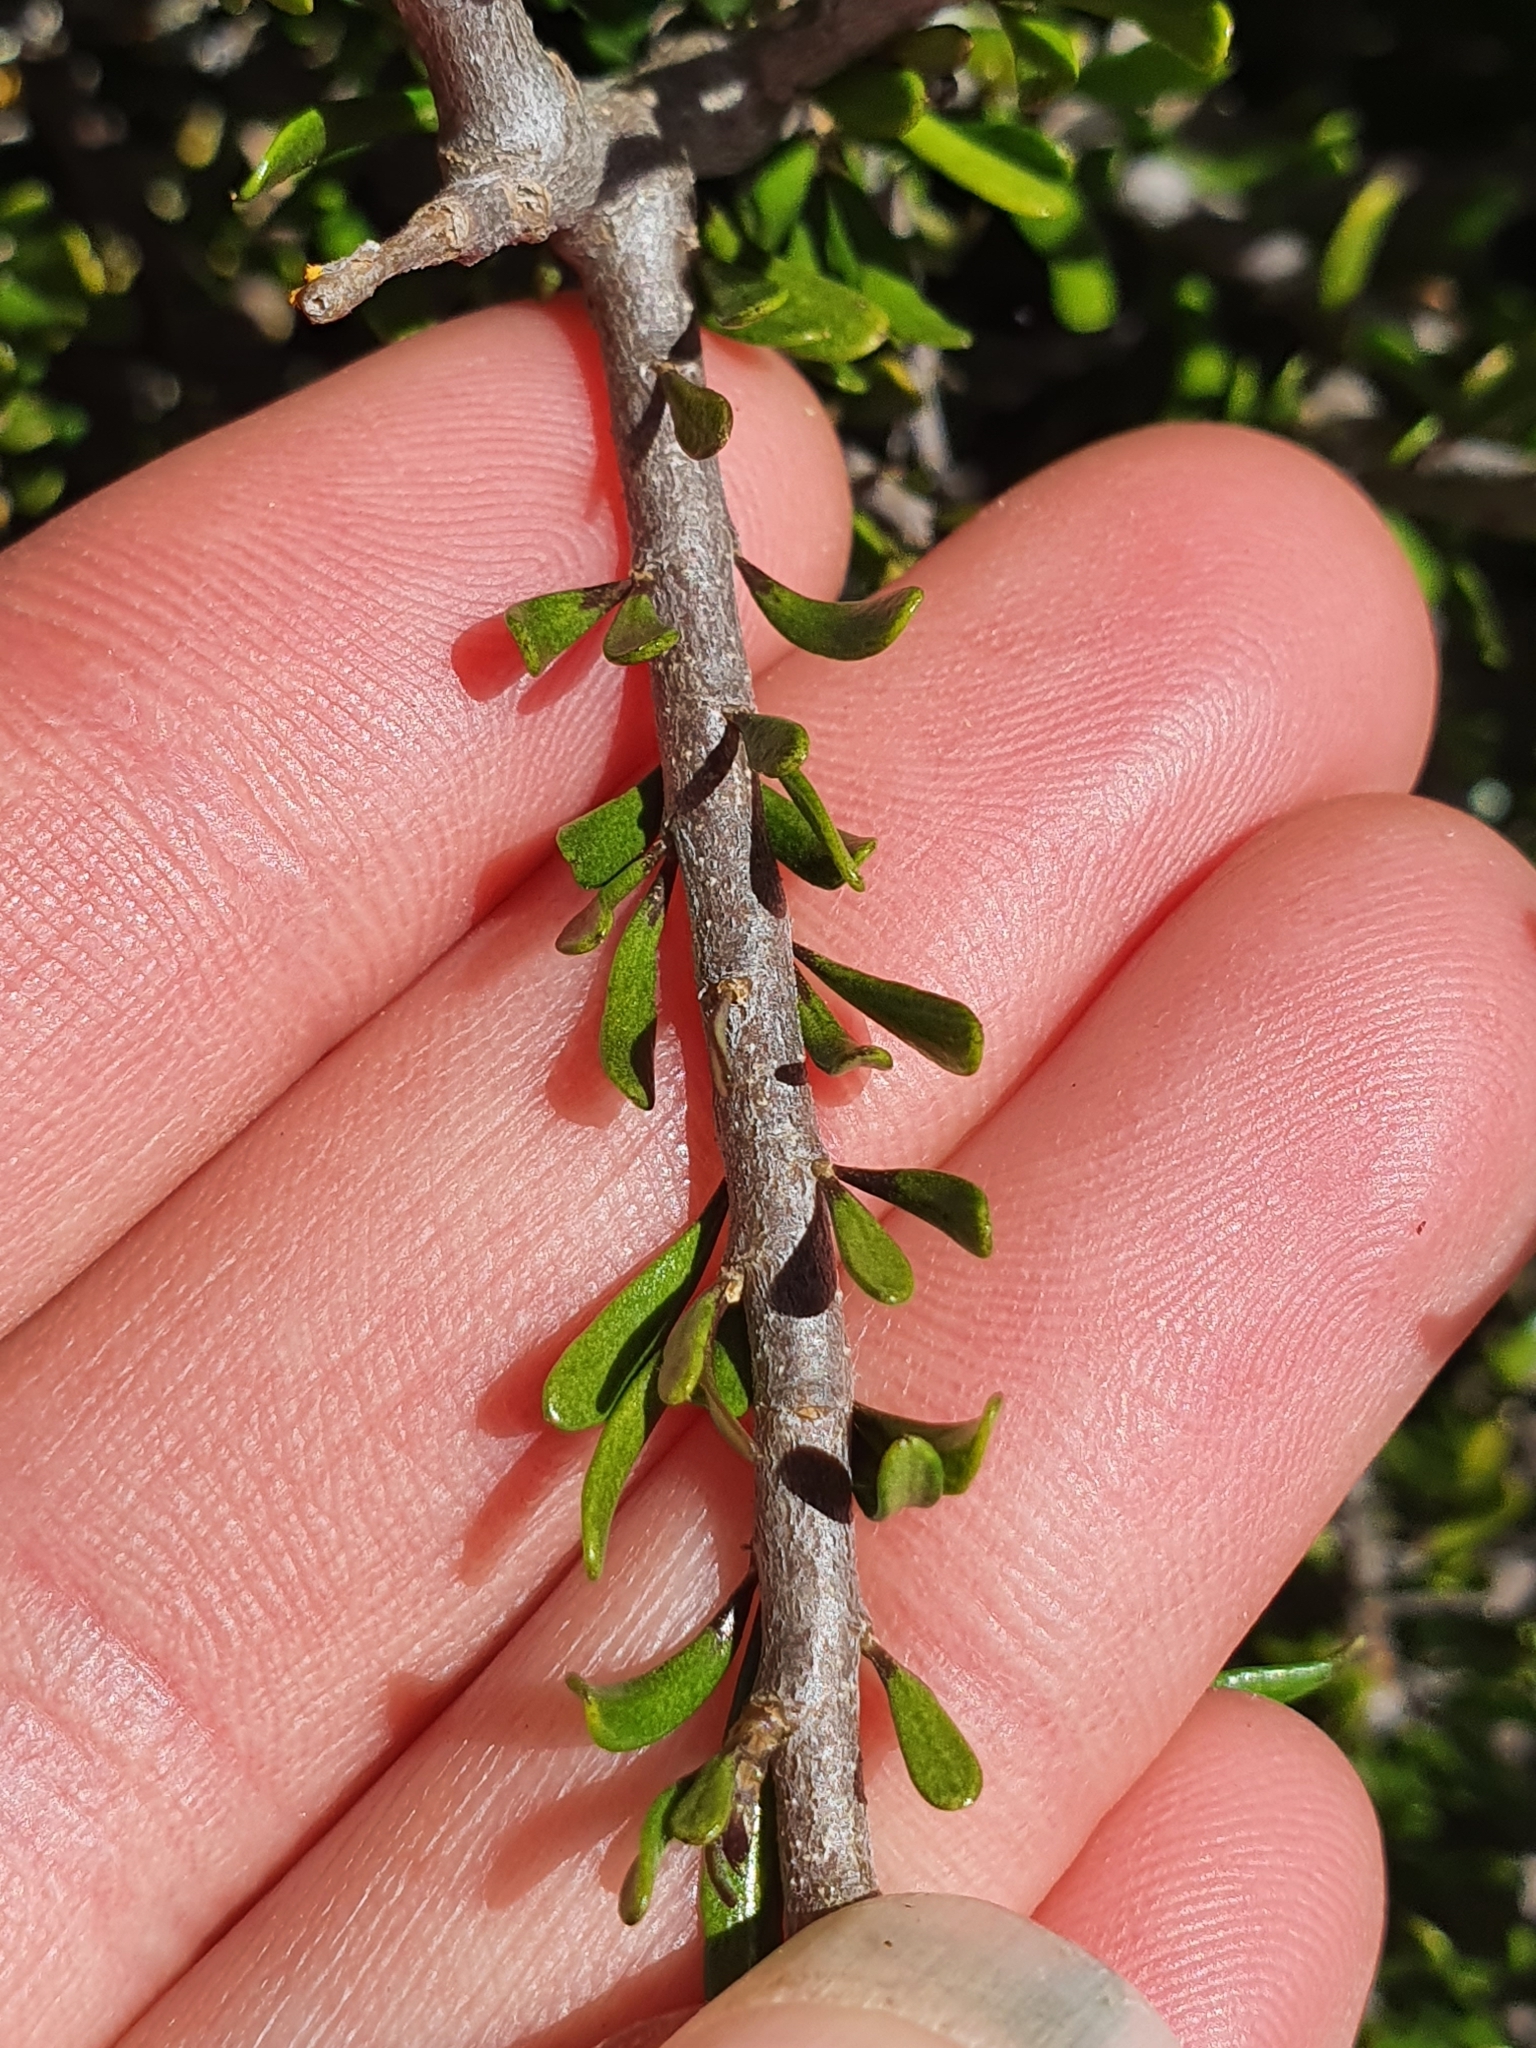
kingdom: Plantae
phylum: Tracheophyta
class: Magnoliopsida
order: Malpighiales
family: Violaceae
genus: Melicytus
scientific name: Melicytus alpinus
